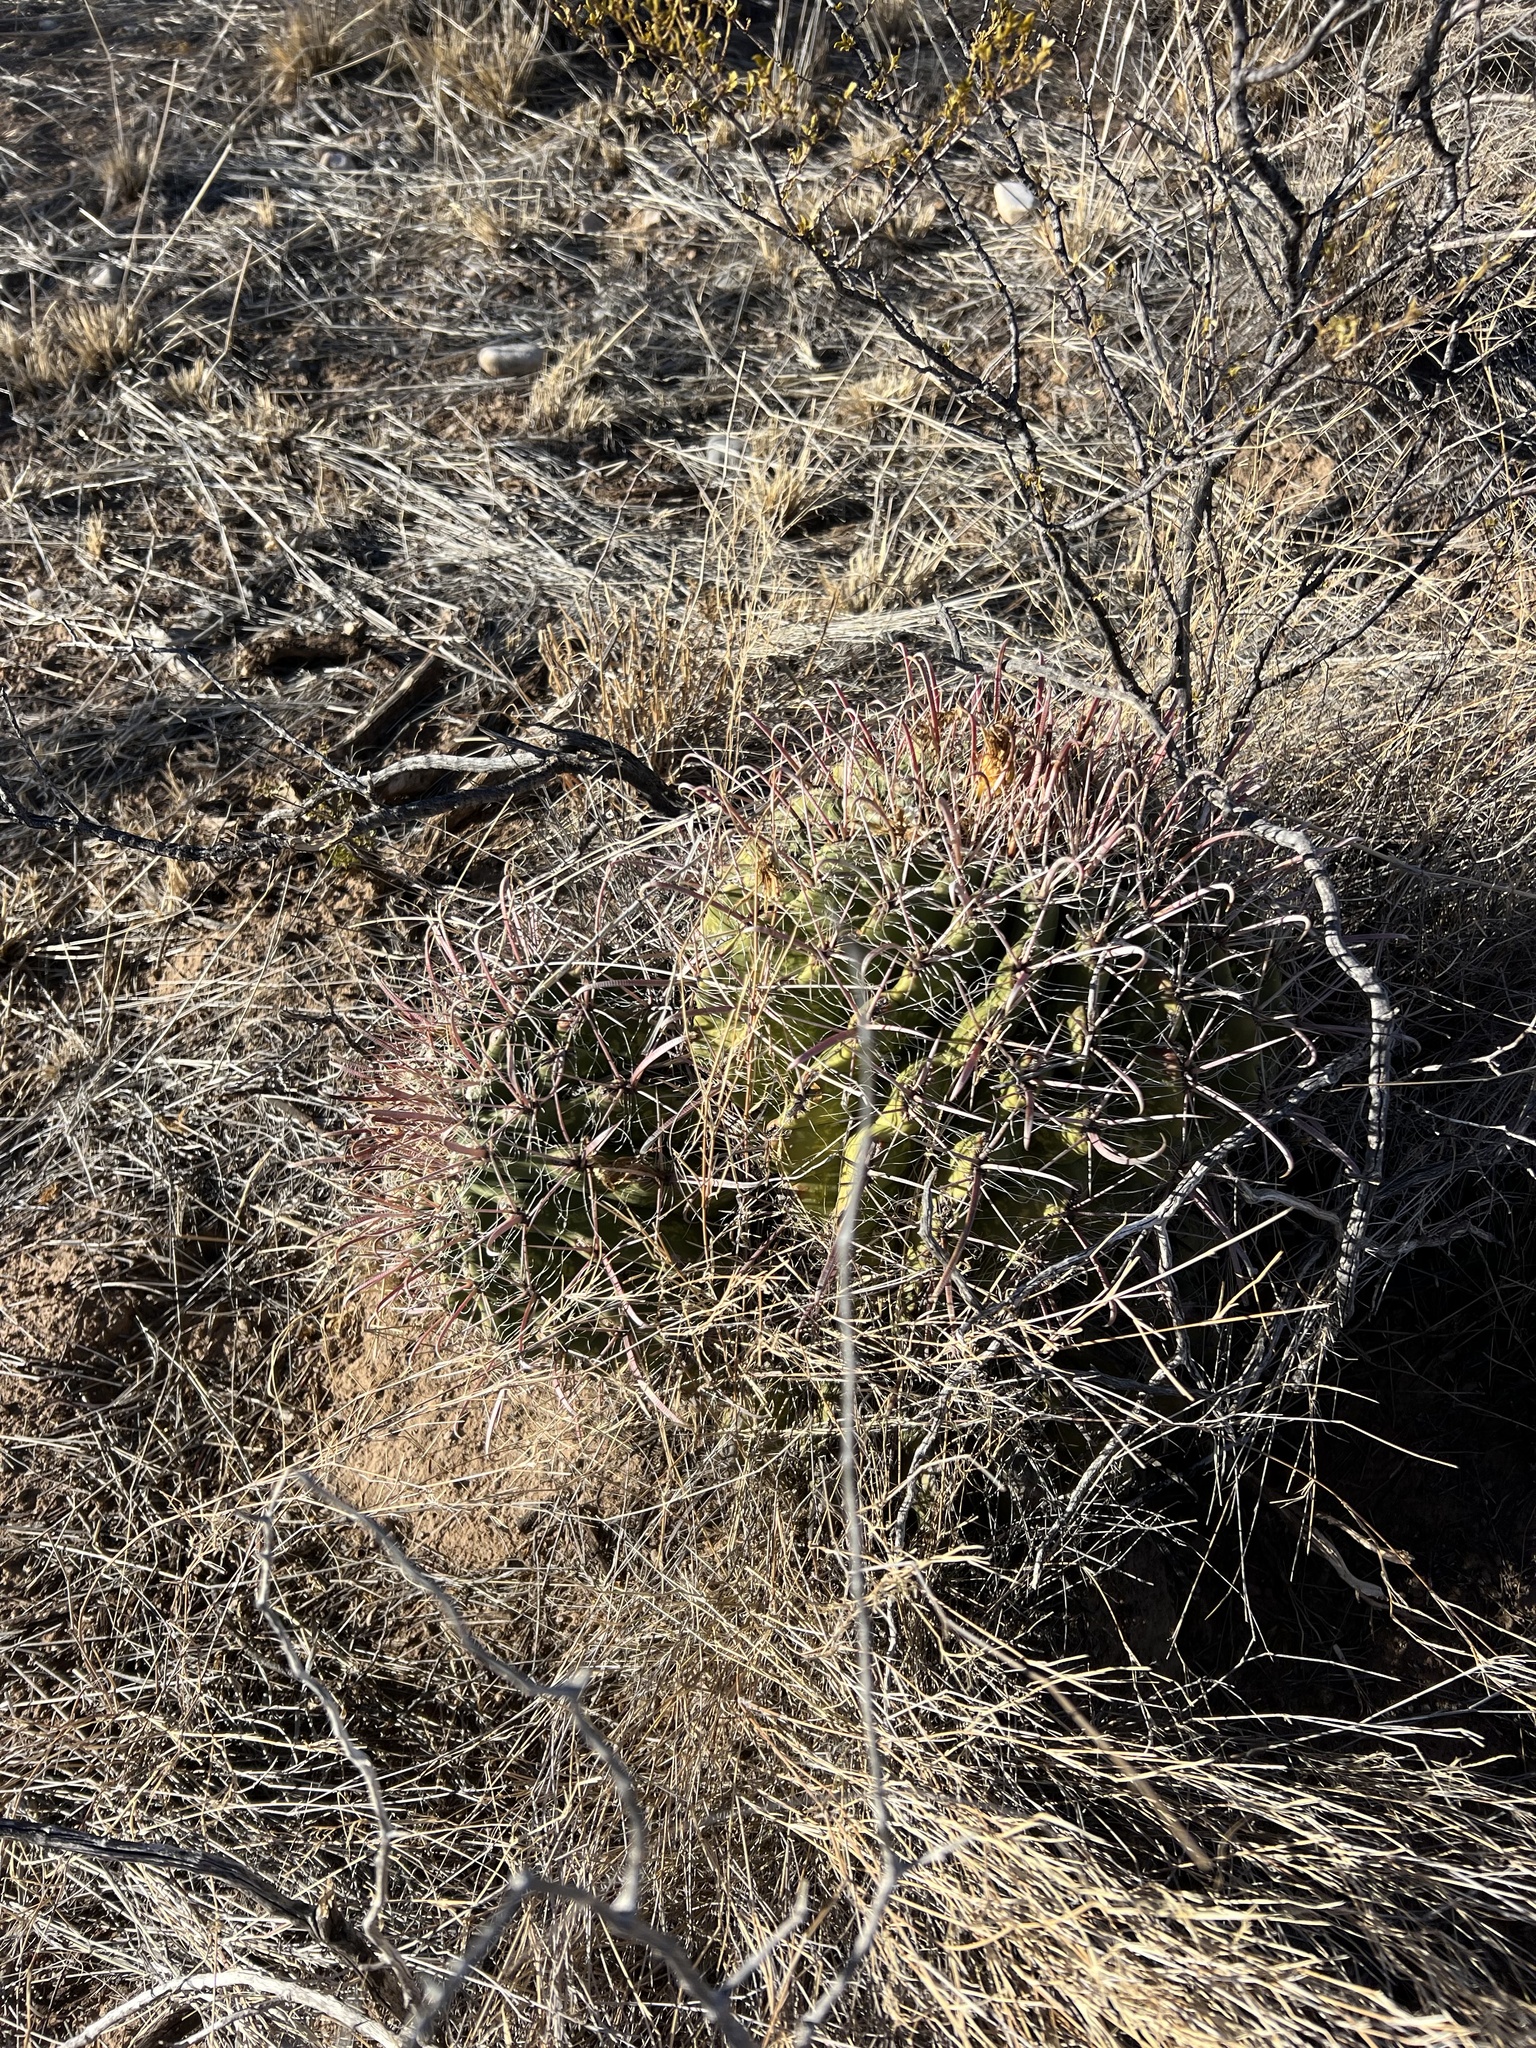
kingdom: Plantae
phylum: Tracheophyta
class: Magnoliopsida
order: Caryophyllales
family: Cactaceae
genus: Ferocactus
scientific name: Ferocactus wislizeni
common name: Candy barrel cactus
